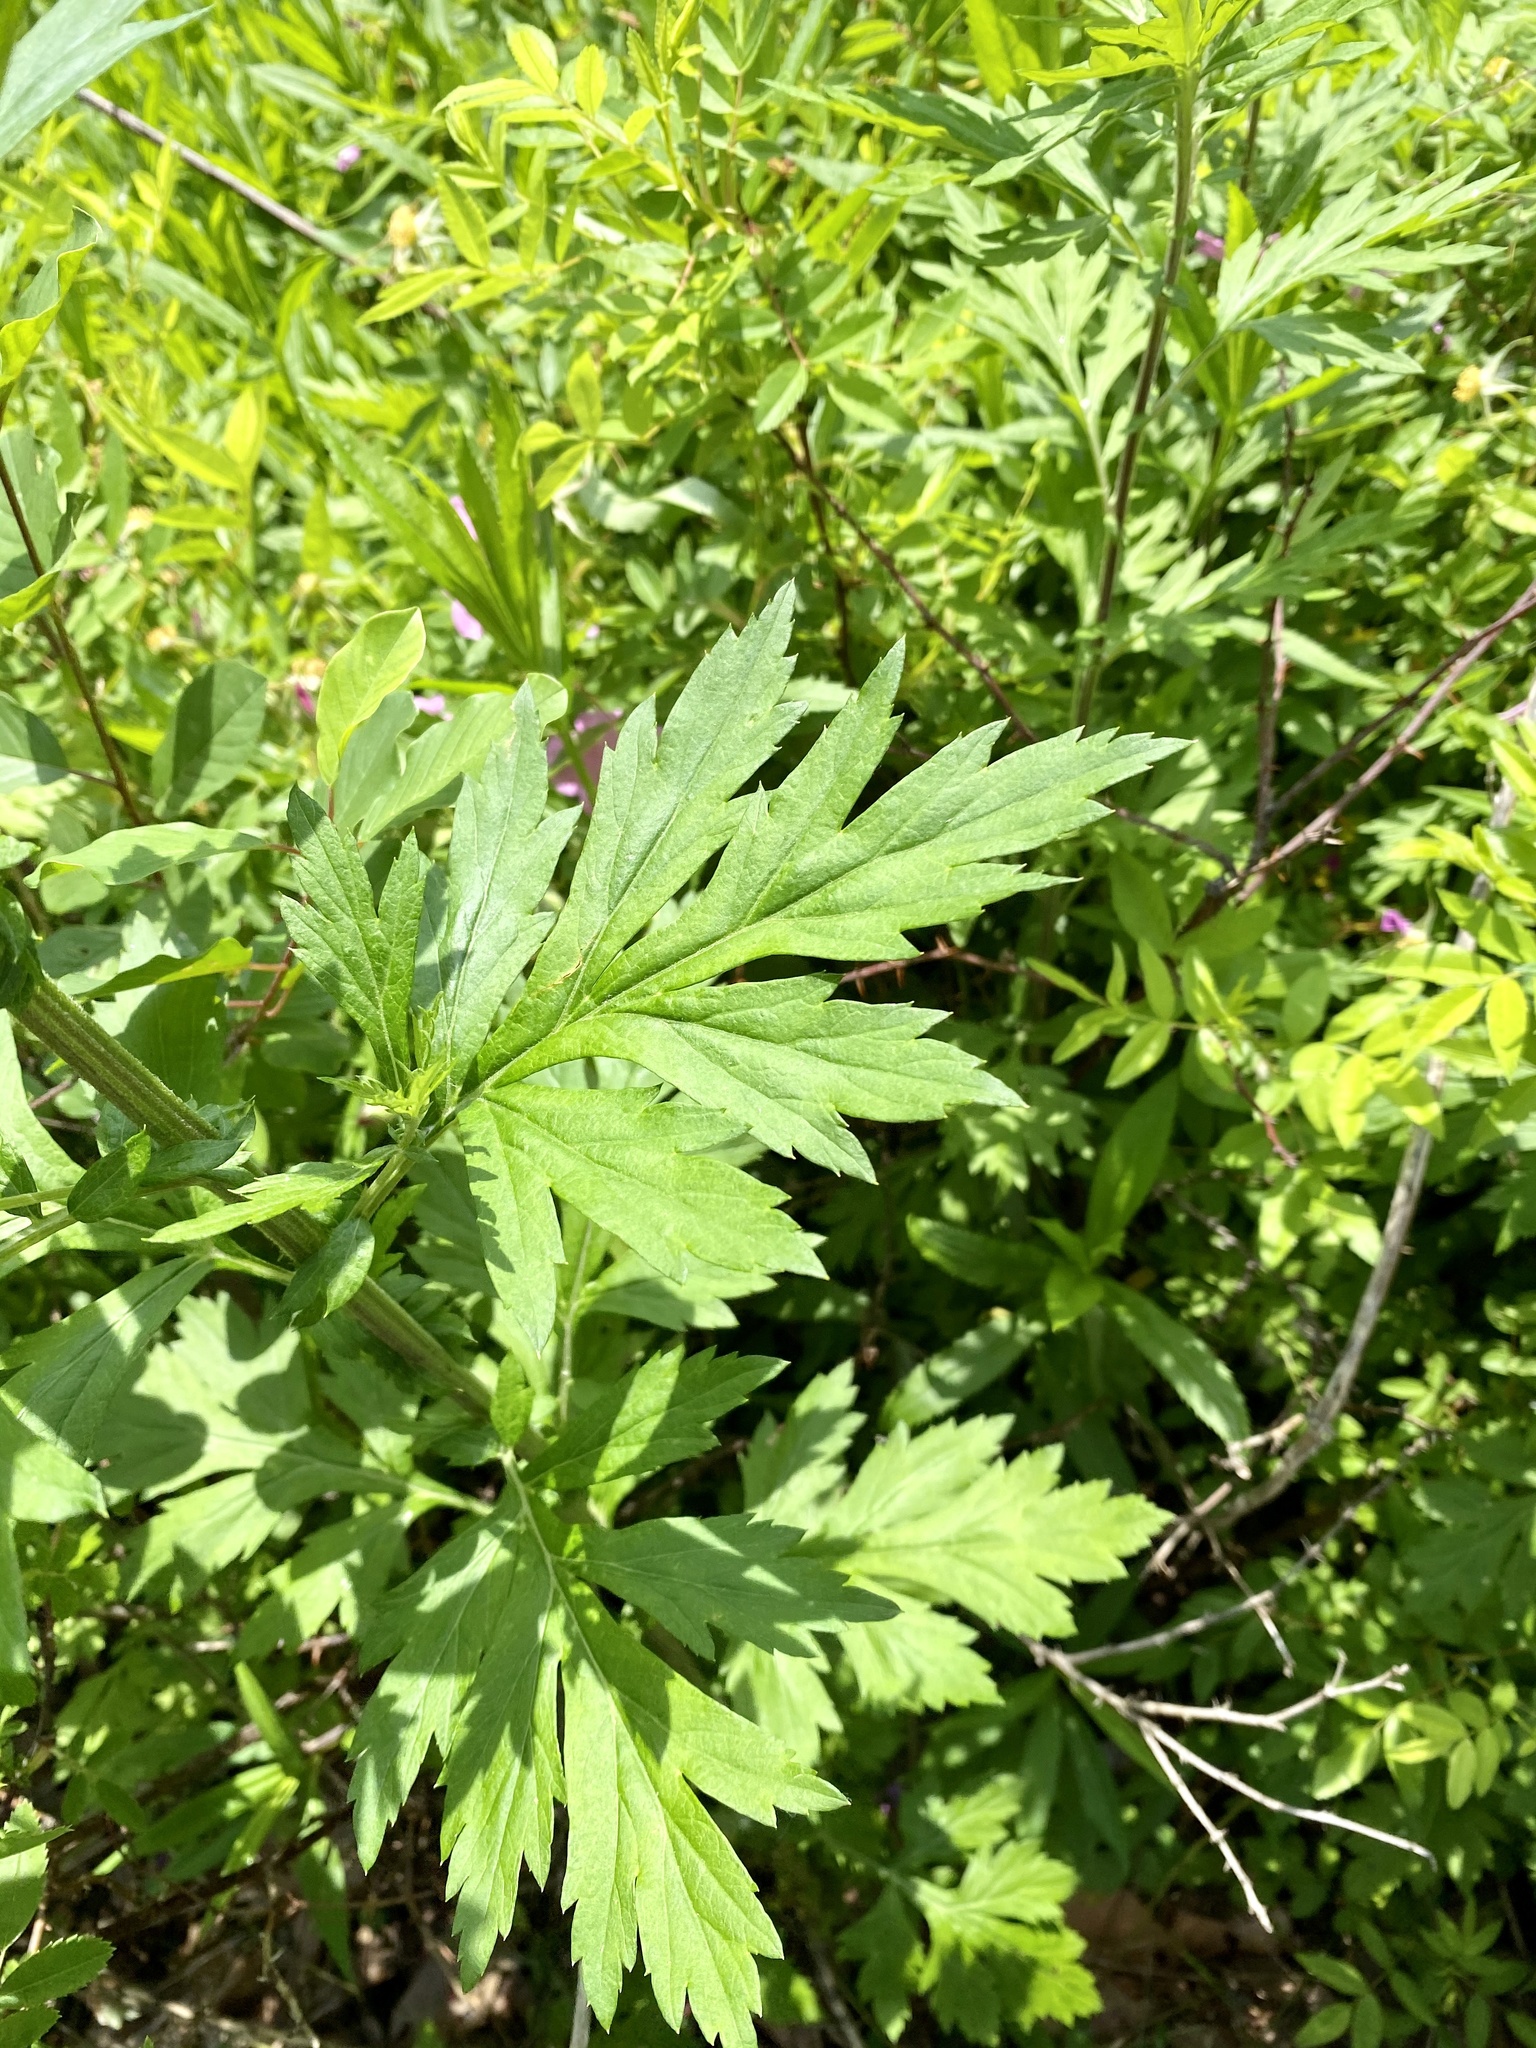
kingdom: Plantae
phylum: Tracheophyta
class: Magnoliopsida
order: Asterales
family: Asteraceae
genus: Artemisia
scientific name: Artemisia vulgaris
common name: Mugwort
